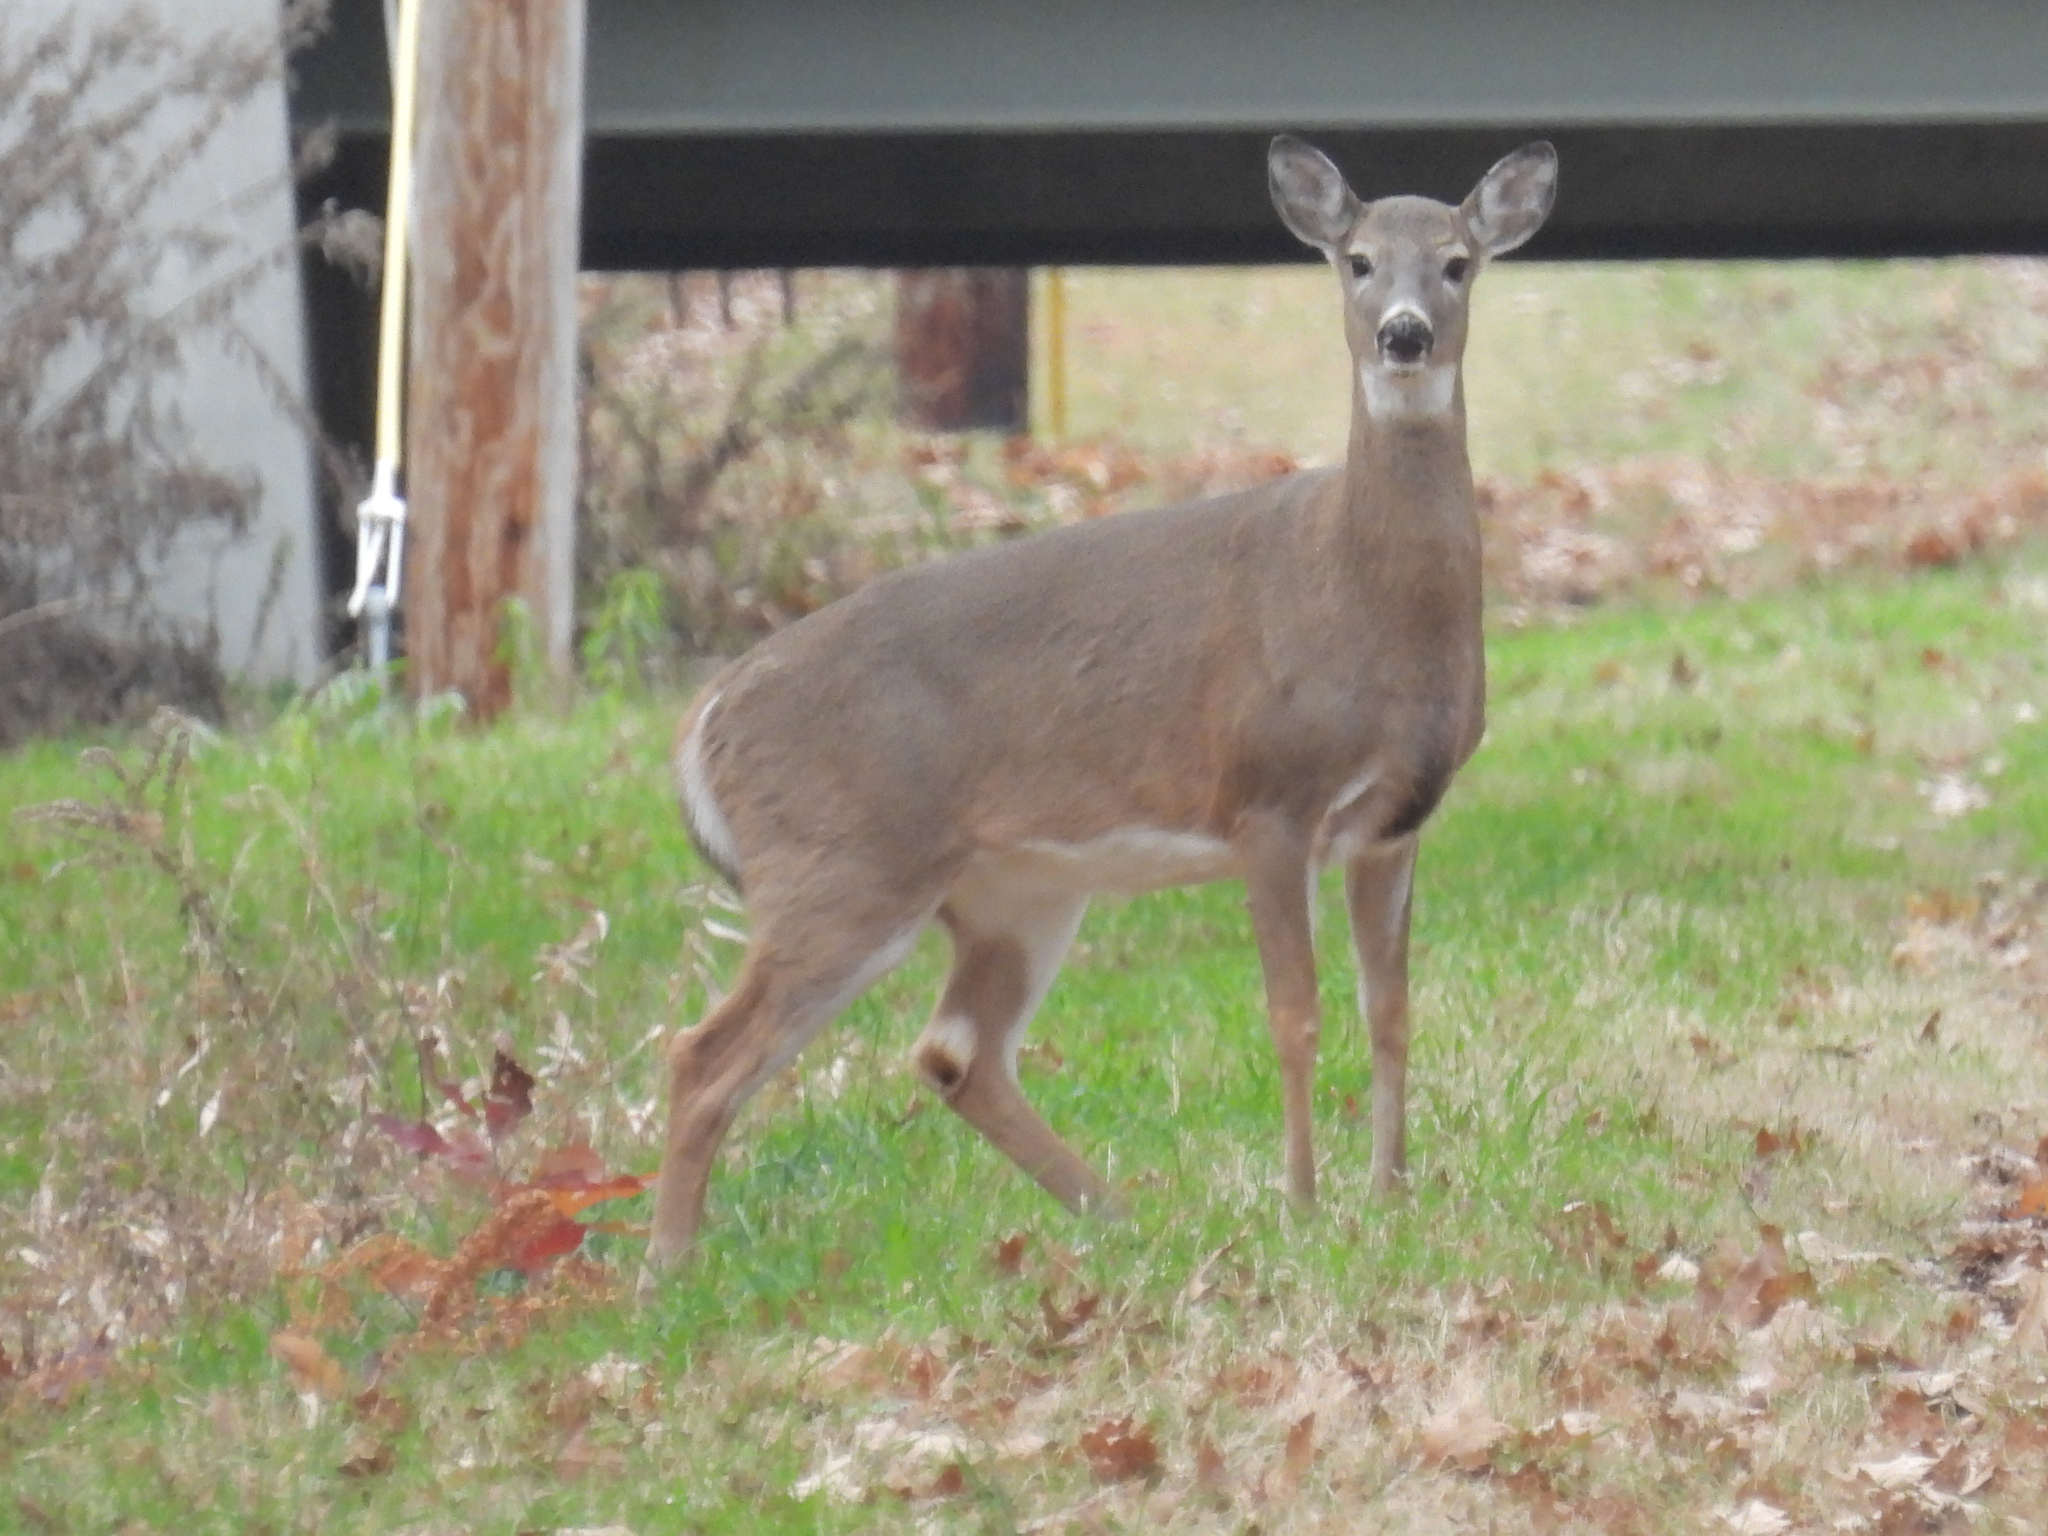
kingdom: Animalia
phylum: Chordata
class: Mammalia
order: Artiodactyla
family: Cervidae
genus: Odocoileus
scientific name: Odocoileus virginianus
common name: White-tailed deer
